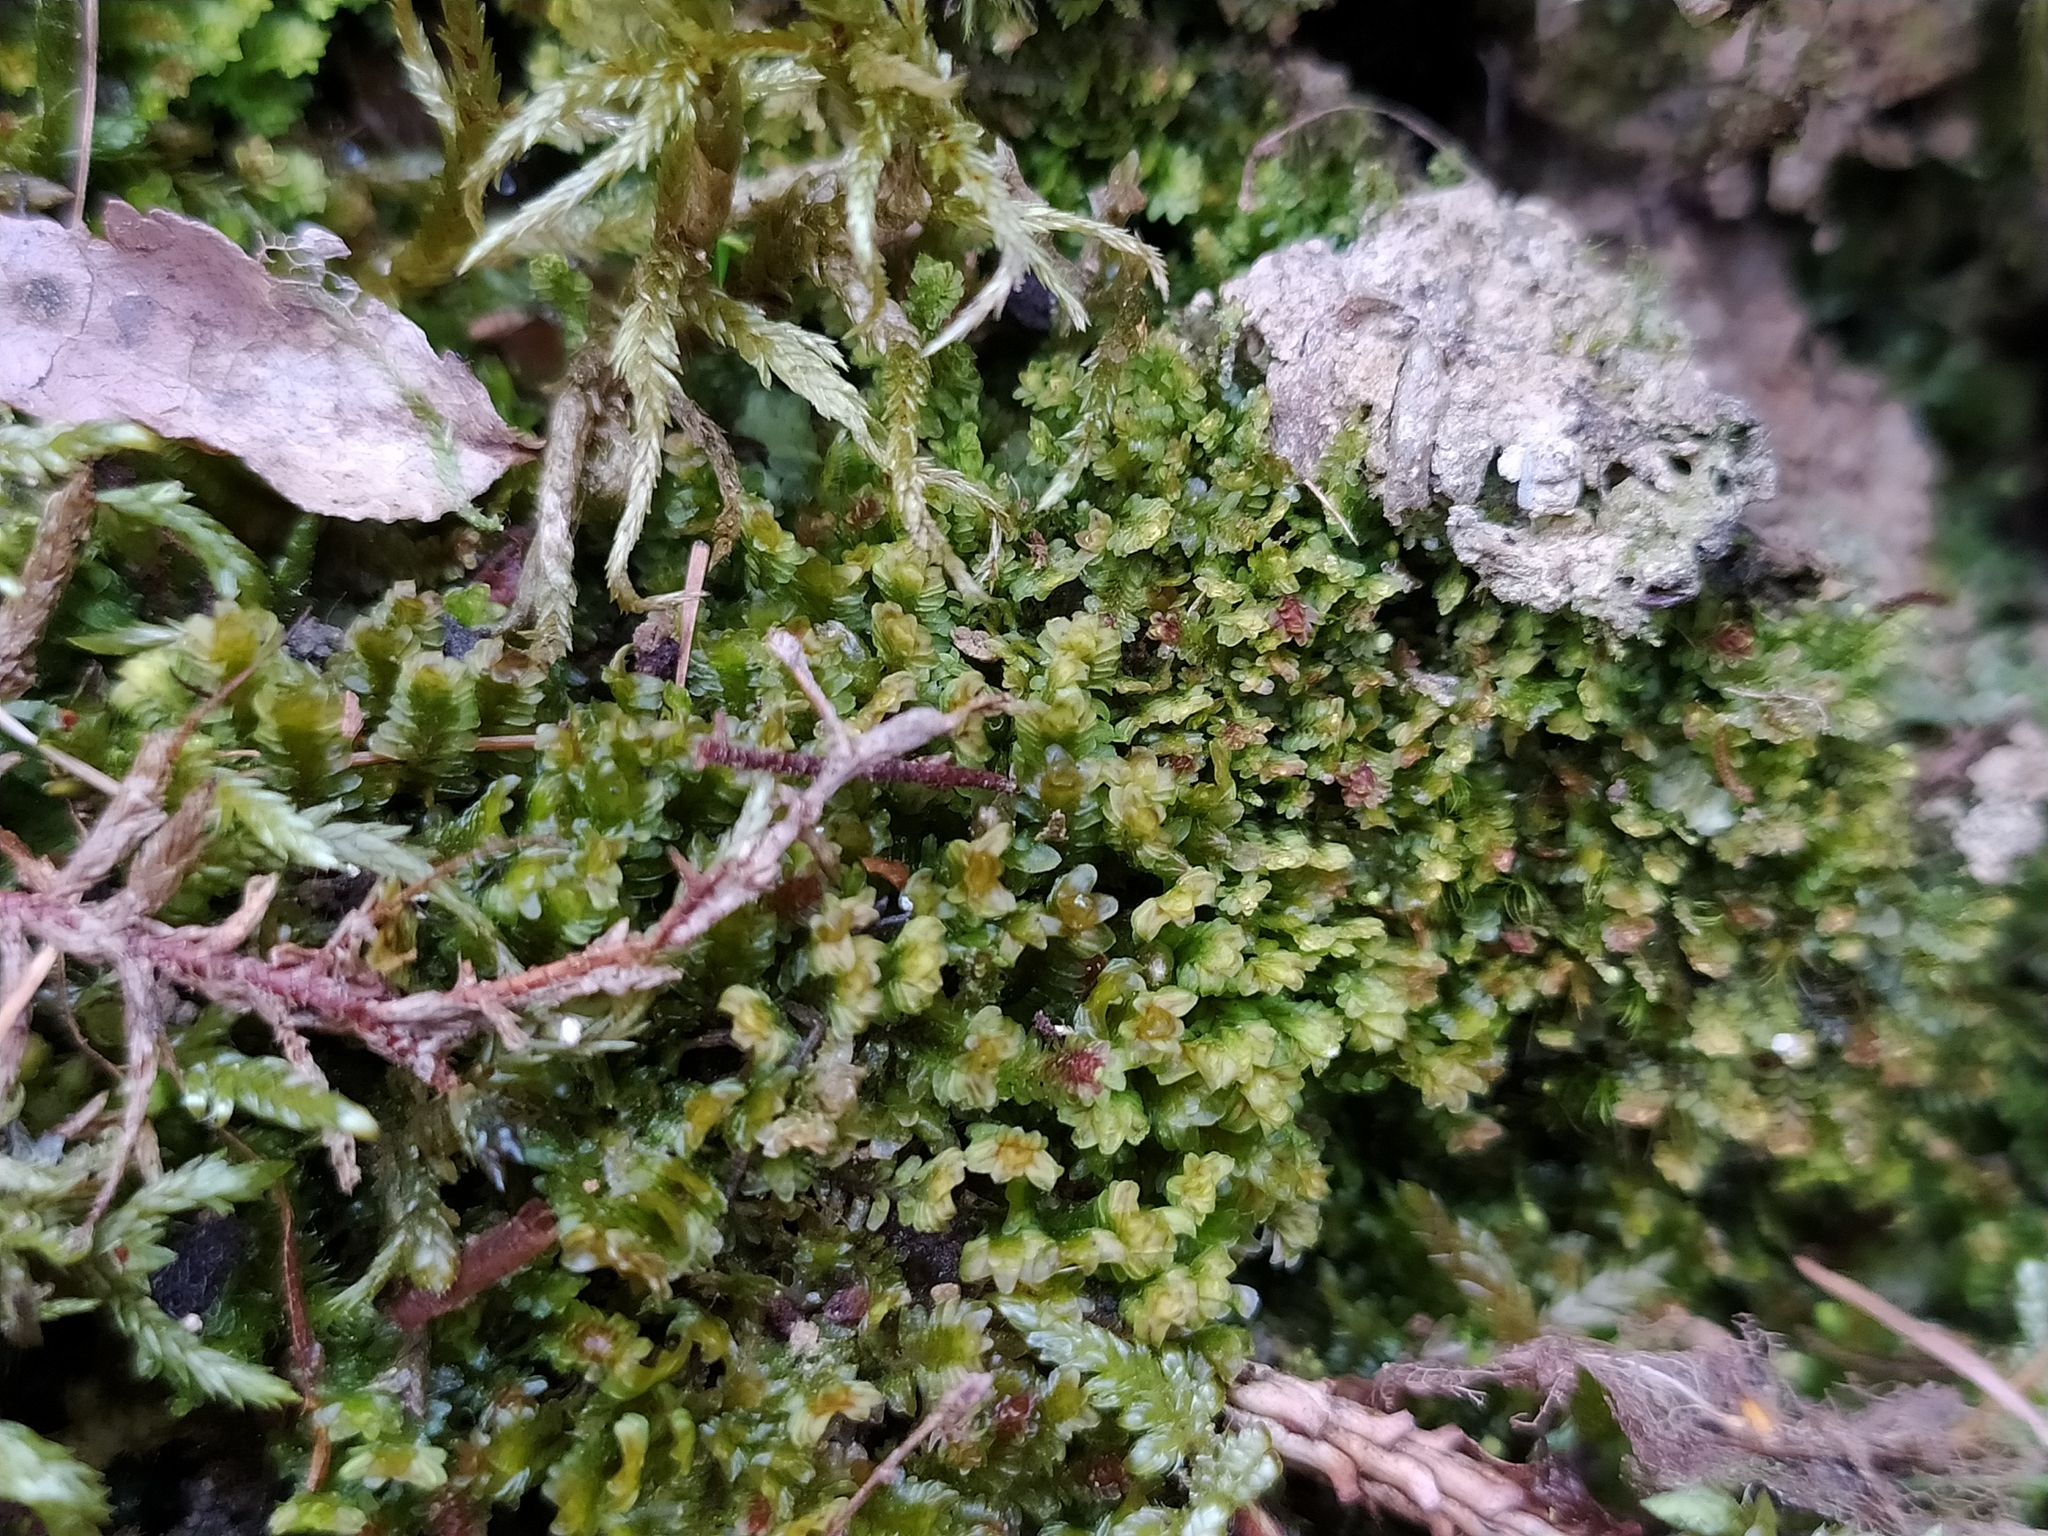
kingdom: Plantae
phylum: Marchantiophyta
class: Jungermanniopsida
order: Jungermanniales
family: Scapaniaceae
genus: Diplophyllum
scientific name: Diplophyllum albicans
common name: White earwort
